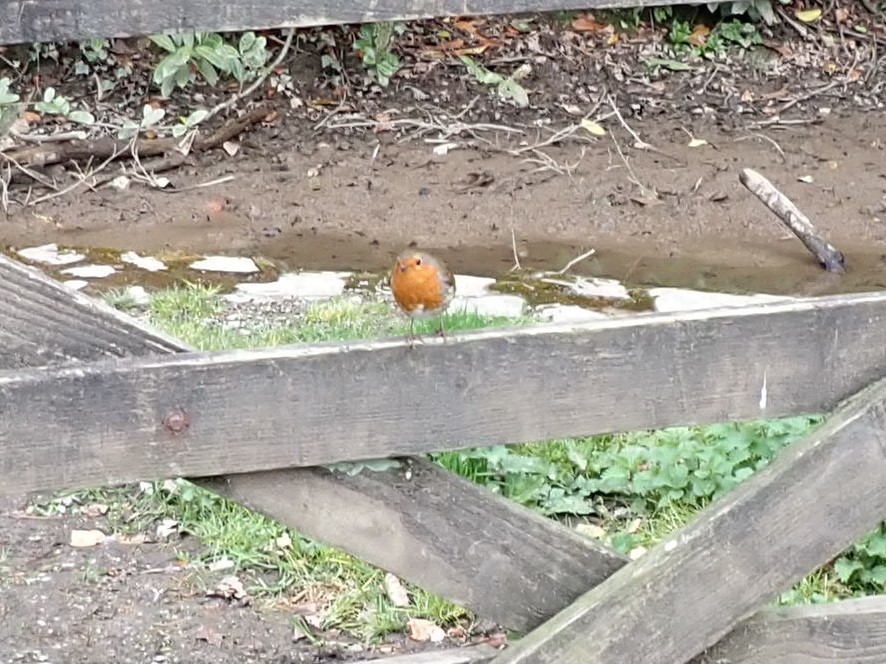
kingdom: Animalia
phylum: Chordata
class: Aves
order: Passeriformes
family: Muscicapidae
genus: Erithacus
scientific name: Erithacus rubecula
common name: European robin
